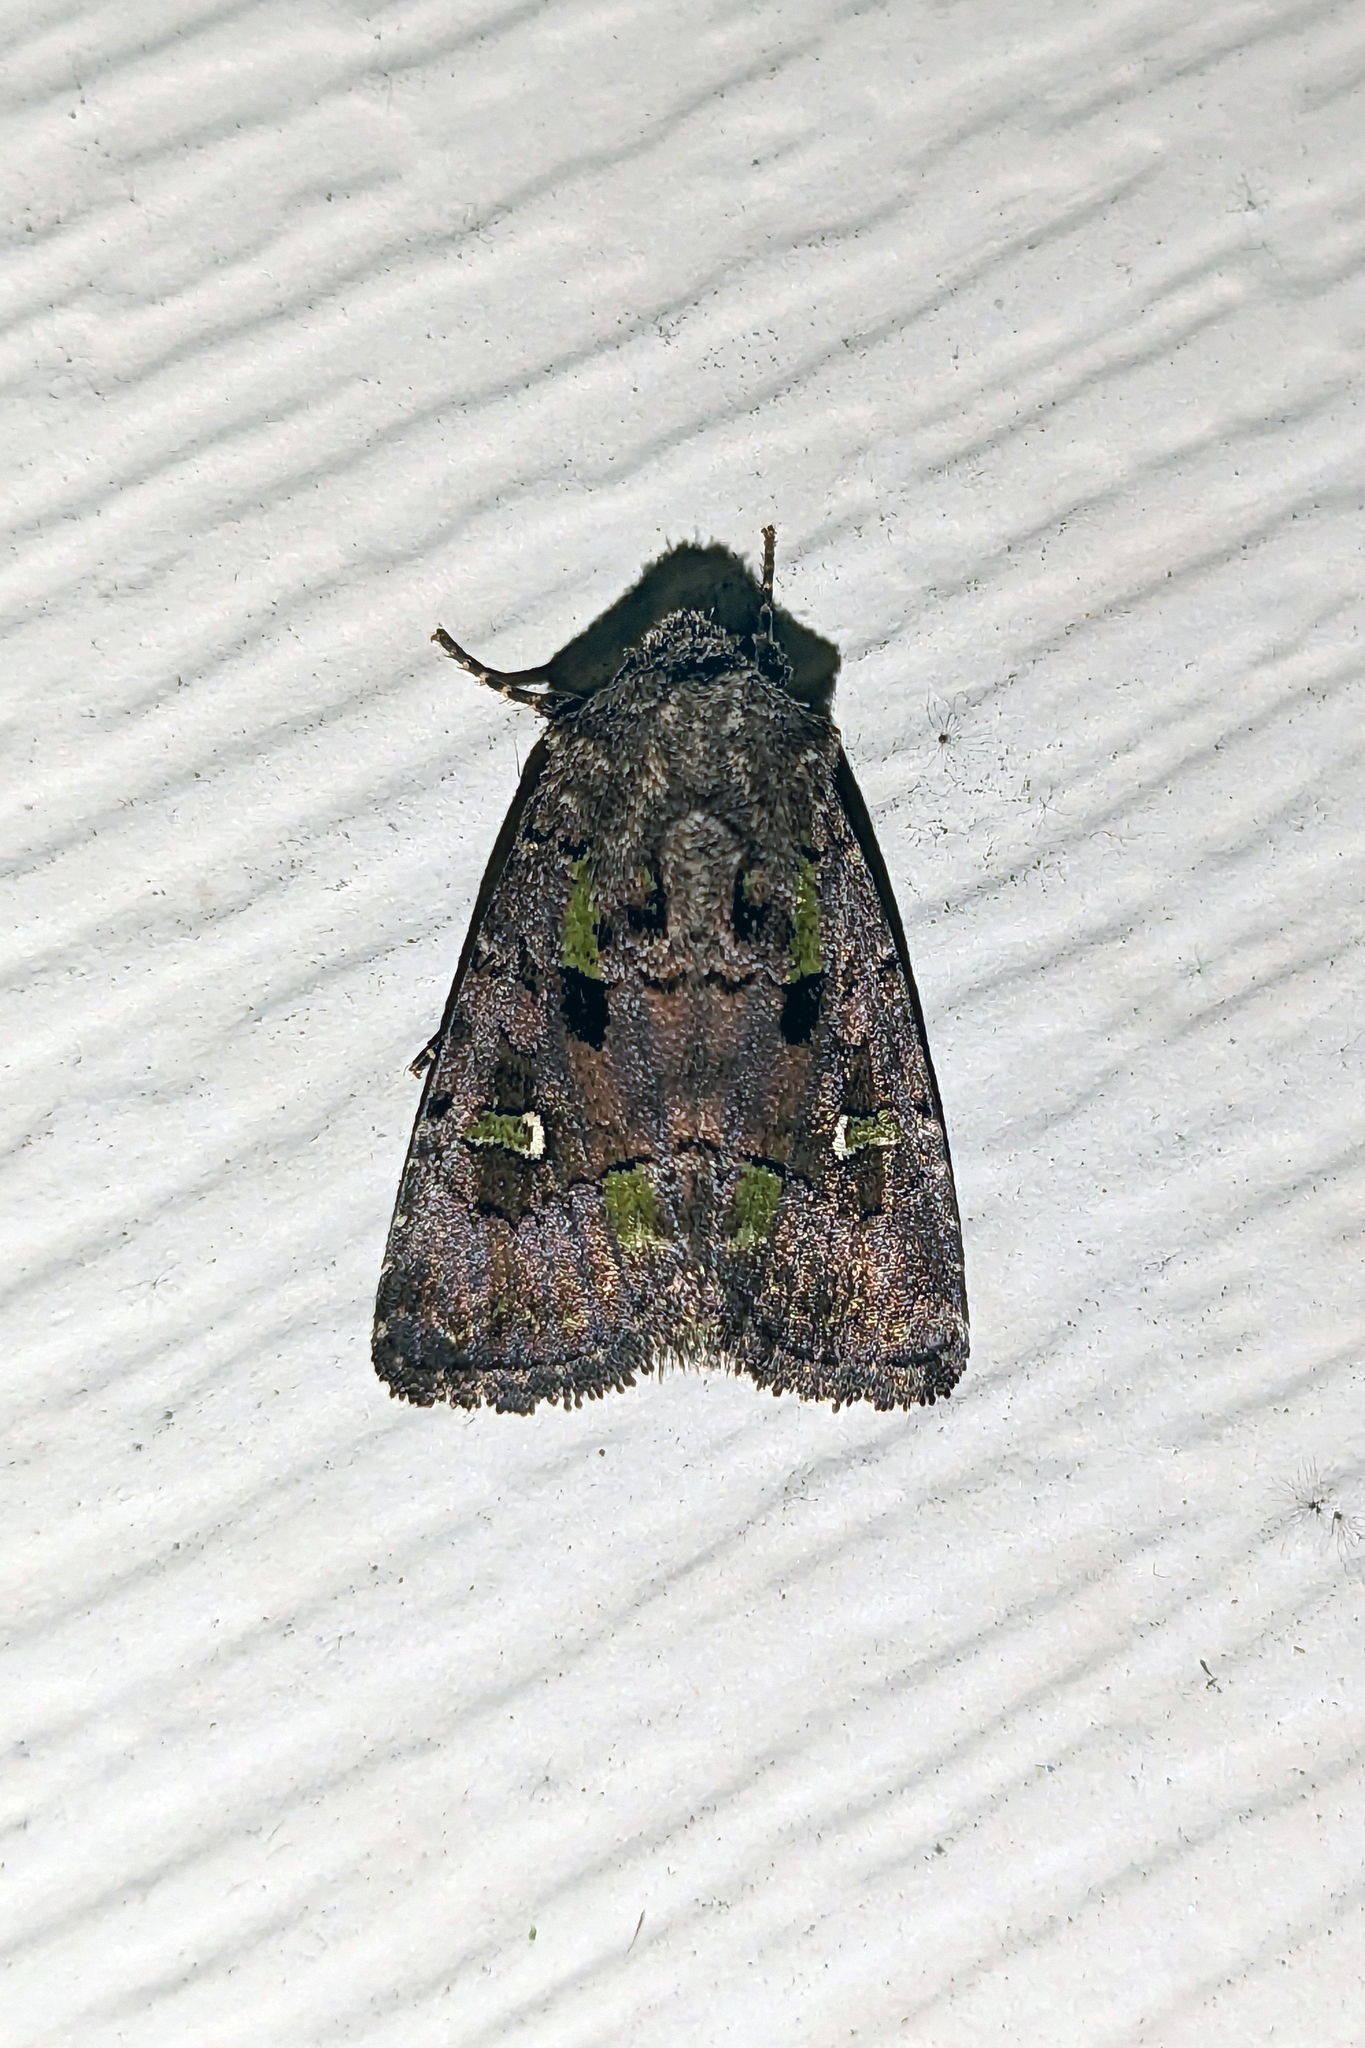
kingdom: Animalia
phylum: Arthropoda
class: Insecta
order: Lepidoptera
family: Noctuidae
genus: Lacinipolia
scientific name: Lacinipolia renigera
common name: Kidney-spotted minor
